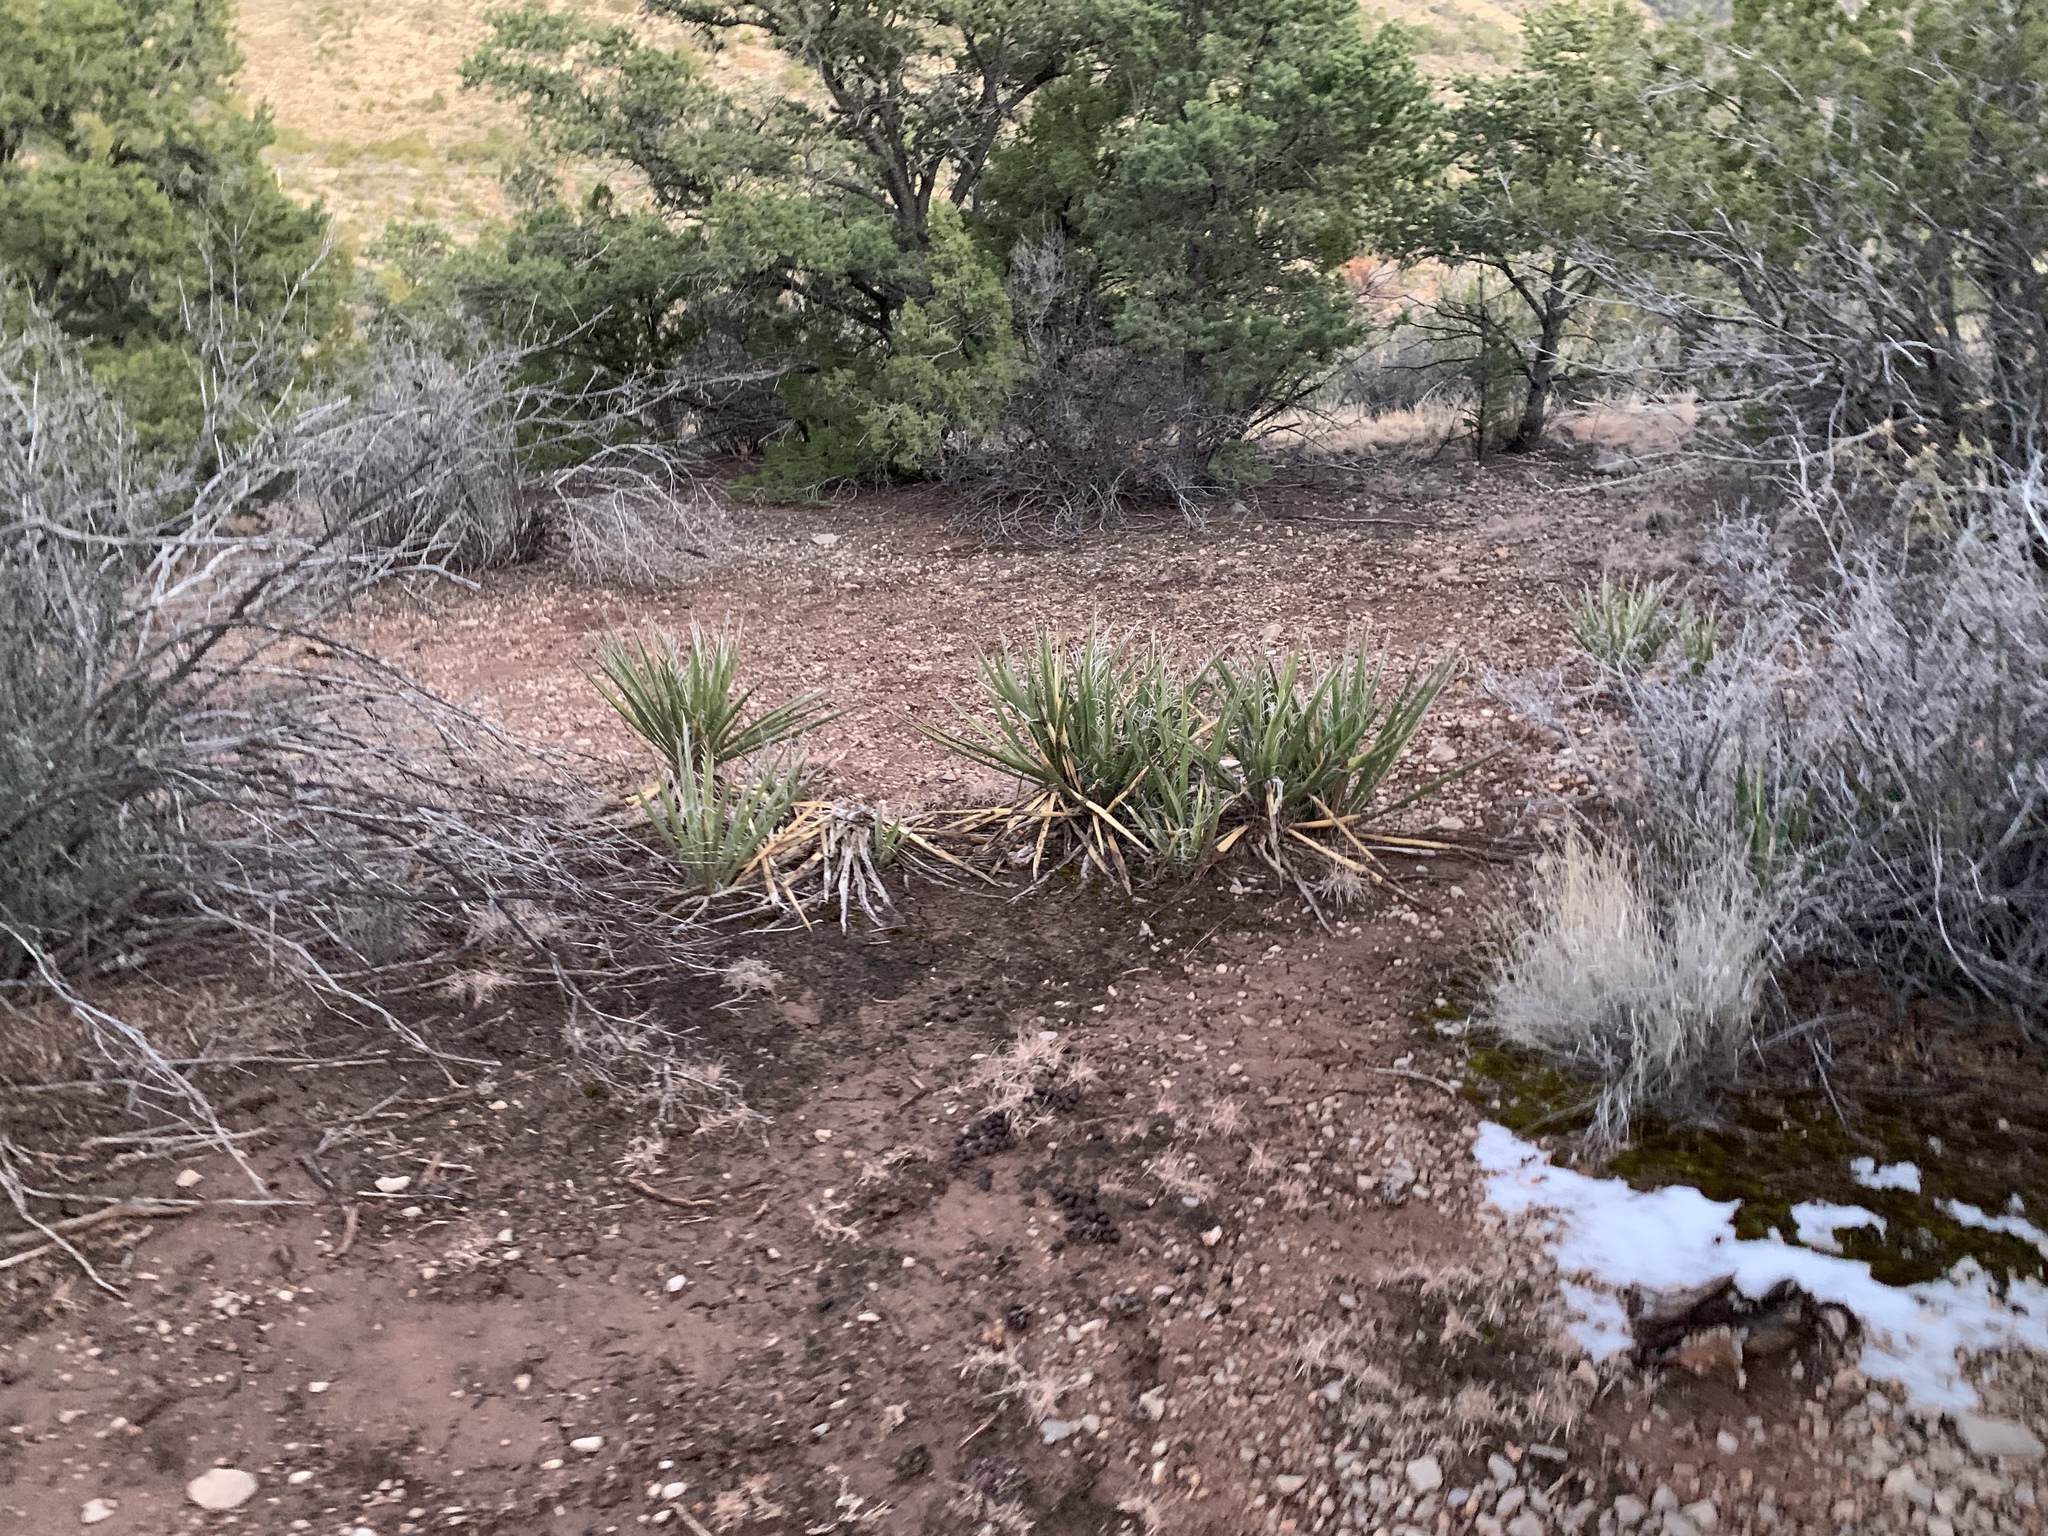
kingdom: Plantae
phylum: Tracheophyta
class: Liliopsida
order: Asparagales
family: Asparagaceae
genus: Yucca
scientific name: Yucca baccata
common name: Banana yucca
